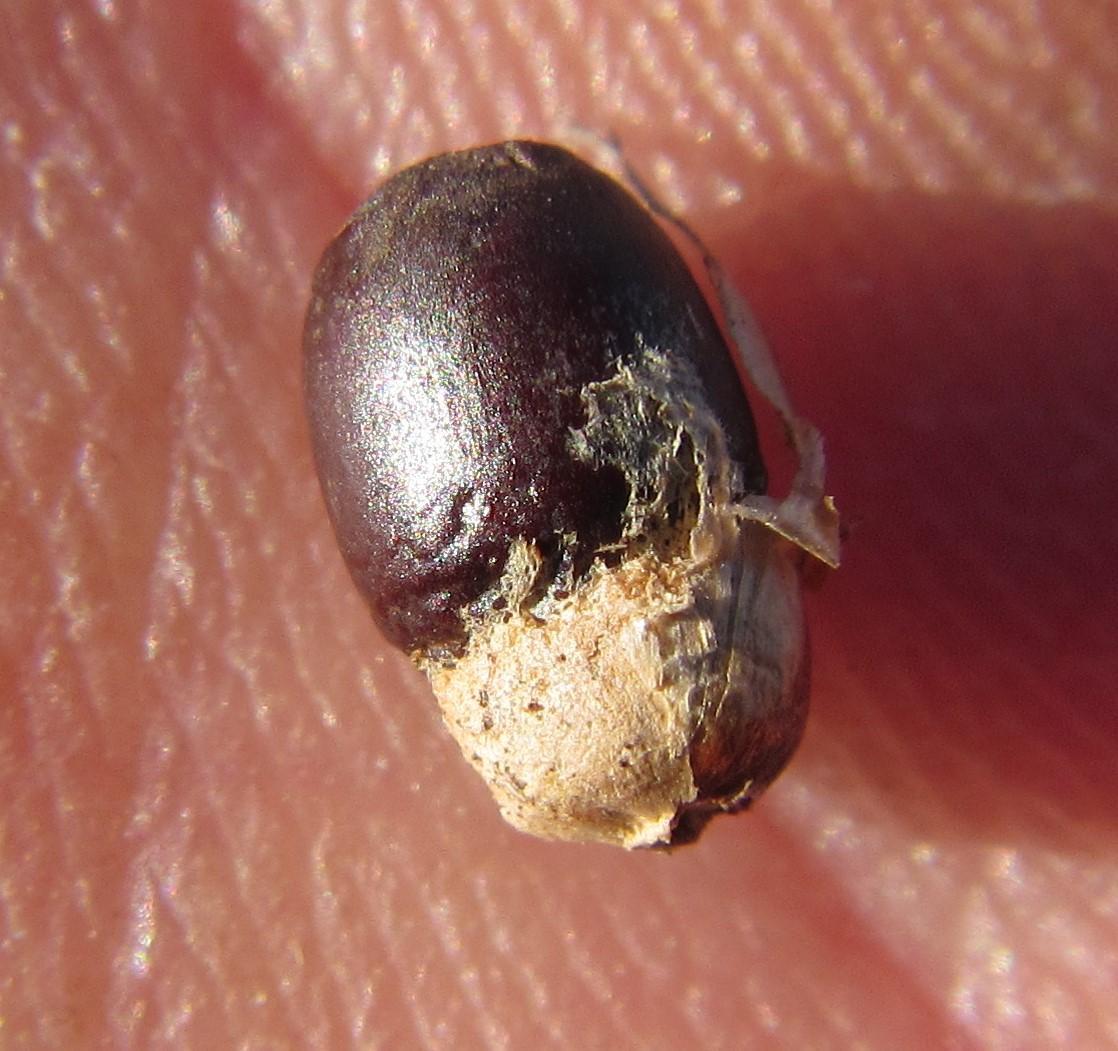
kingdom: Plantae
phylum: Tracheophyta
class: Liliopsida
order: Poales
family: Restionaceae
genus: Hypodiscus
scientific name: Hypodiscus argenteus
